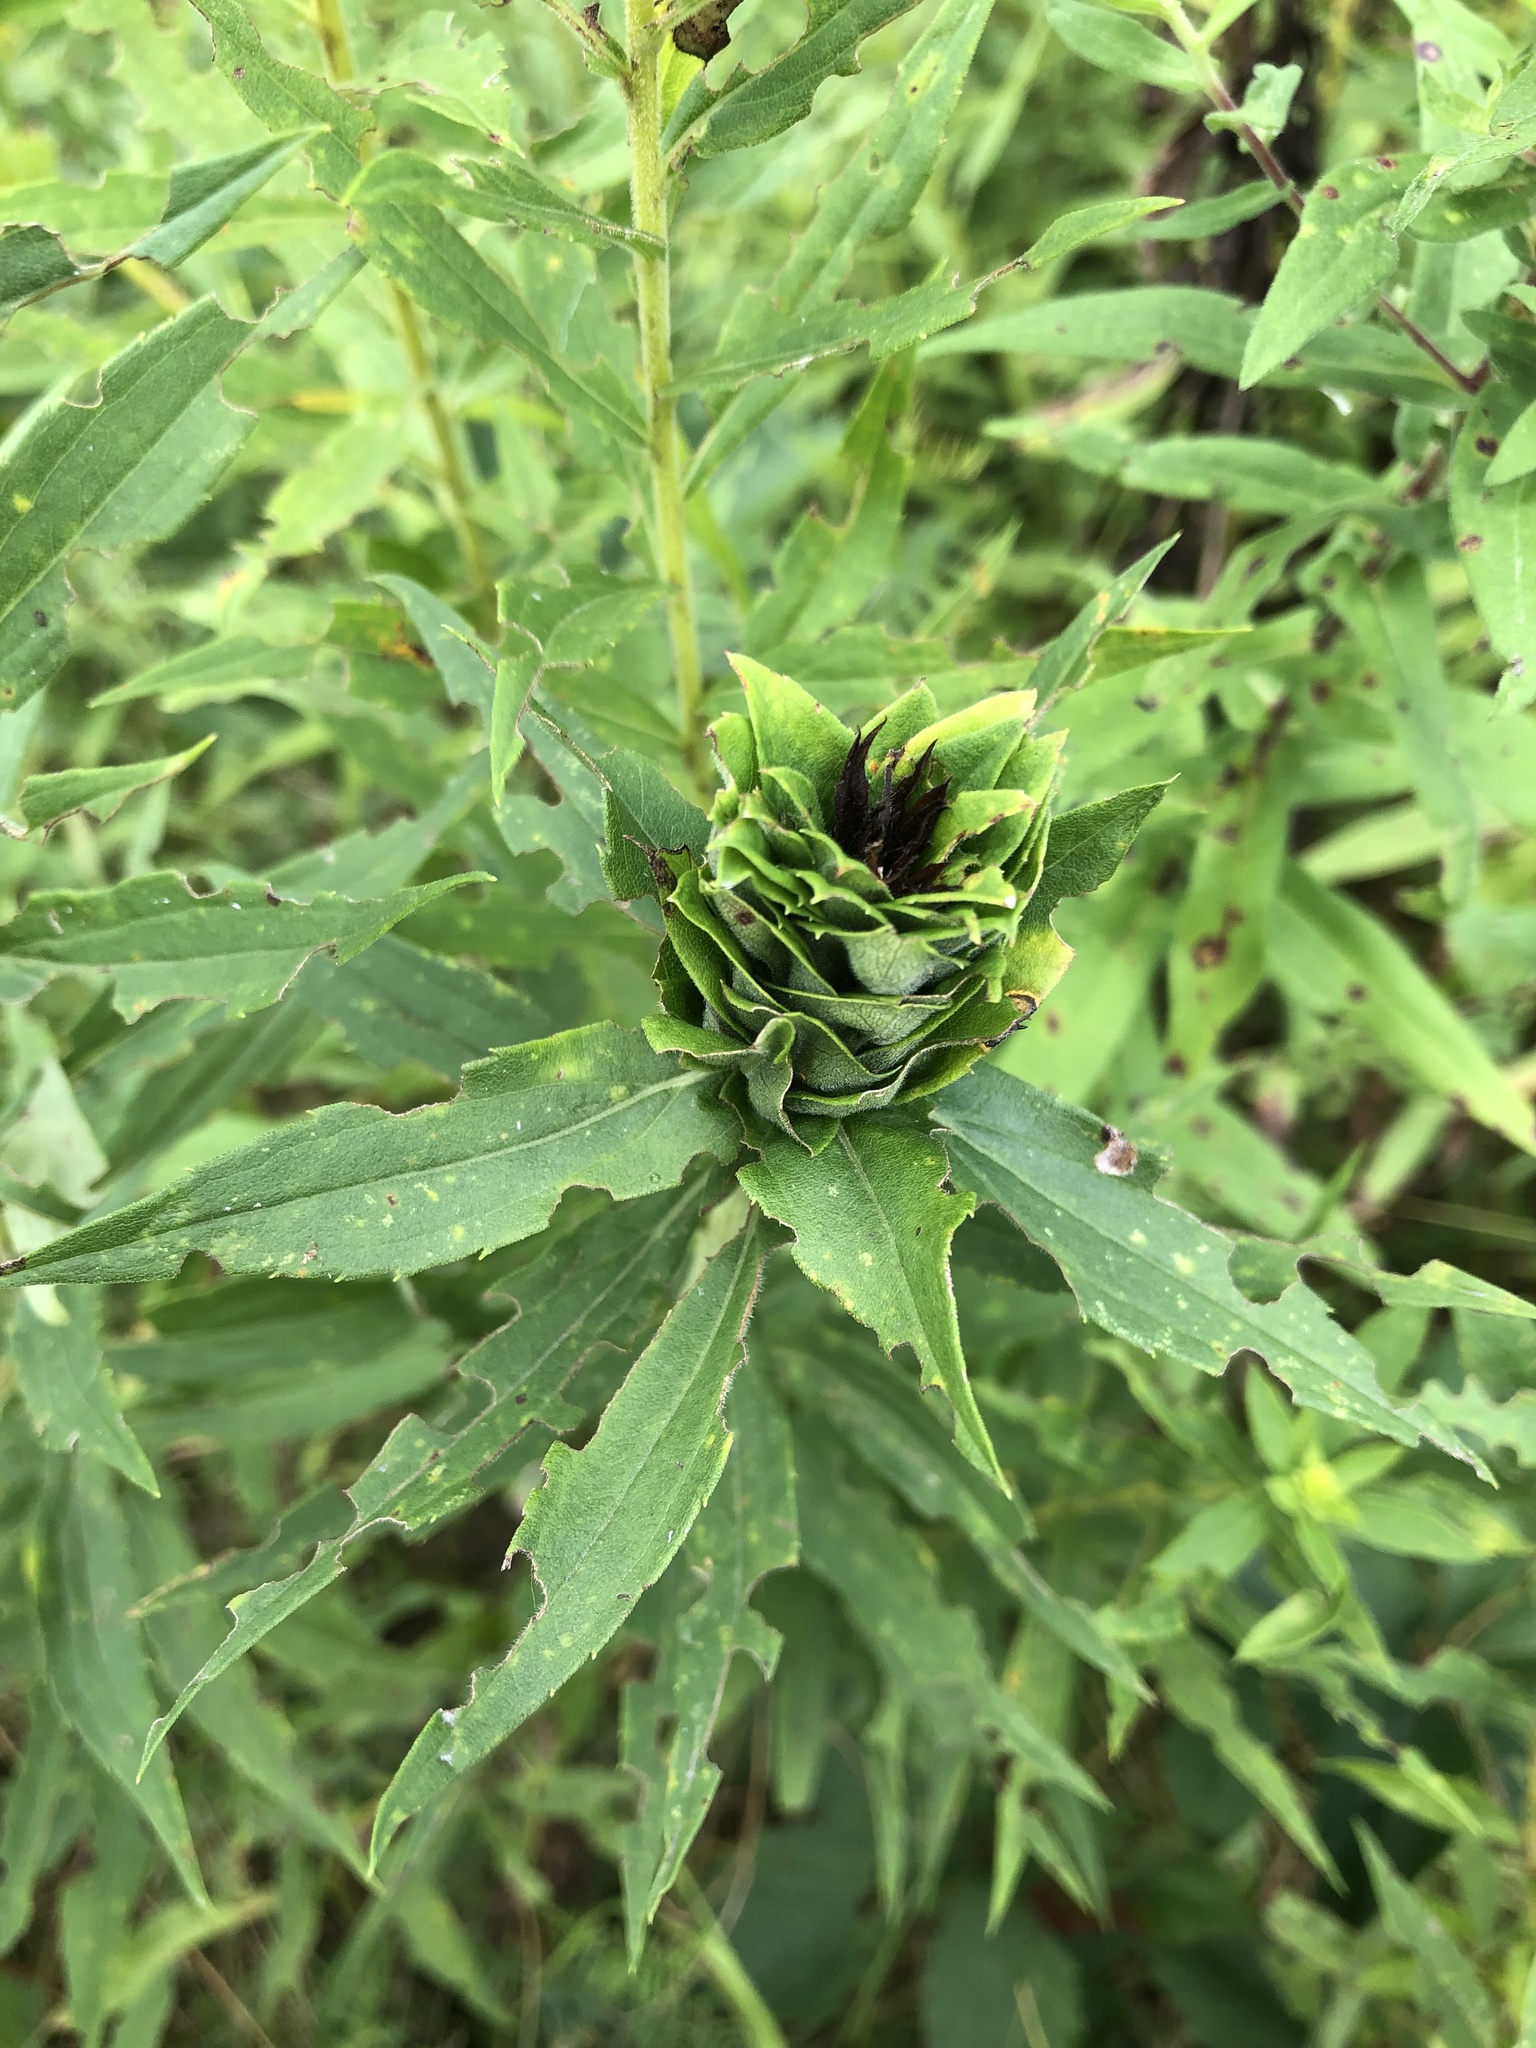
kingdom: Animalia
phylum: Arthropoda
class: Insecta
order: Diptera
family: Cecidomyiidae
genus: Rhopalomyia
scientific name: Rhopalomyia solidaginis
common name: Goldenrod bunch gall midge
